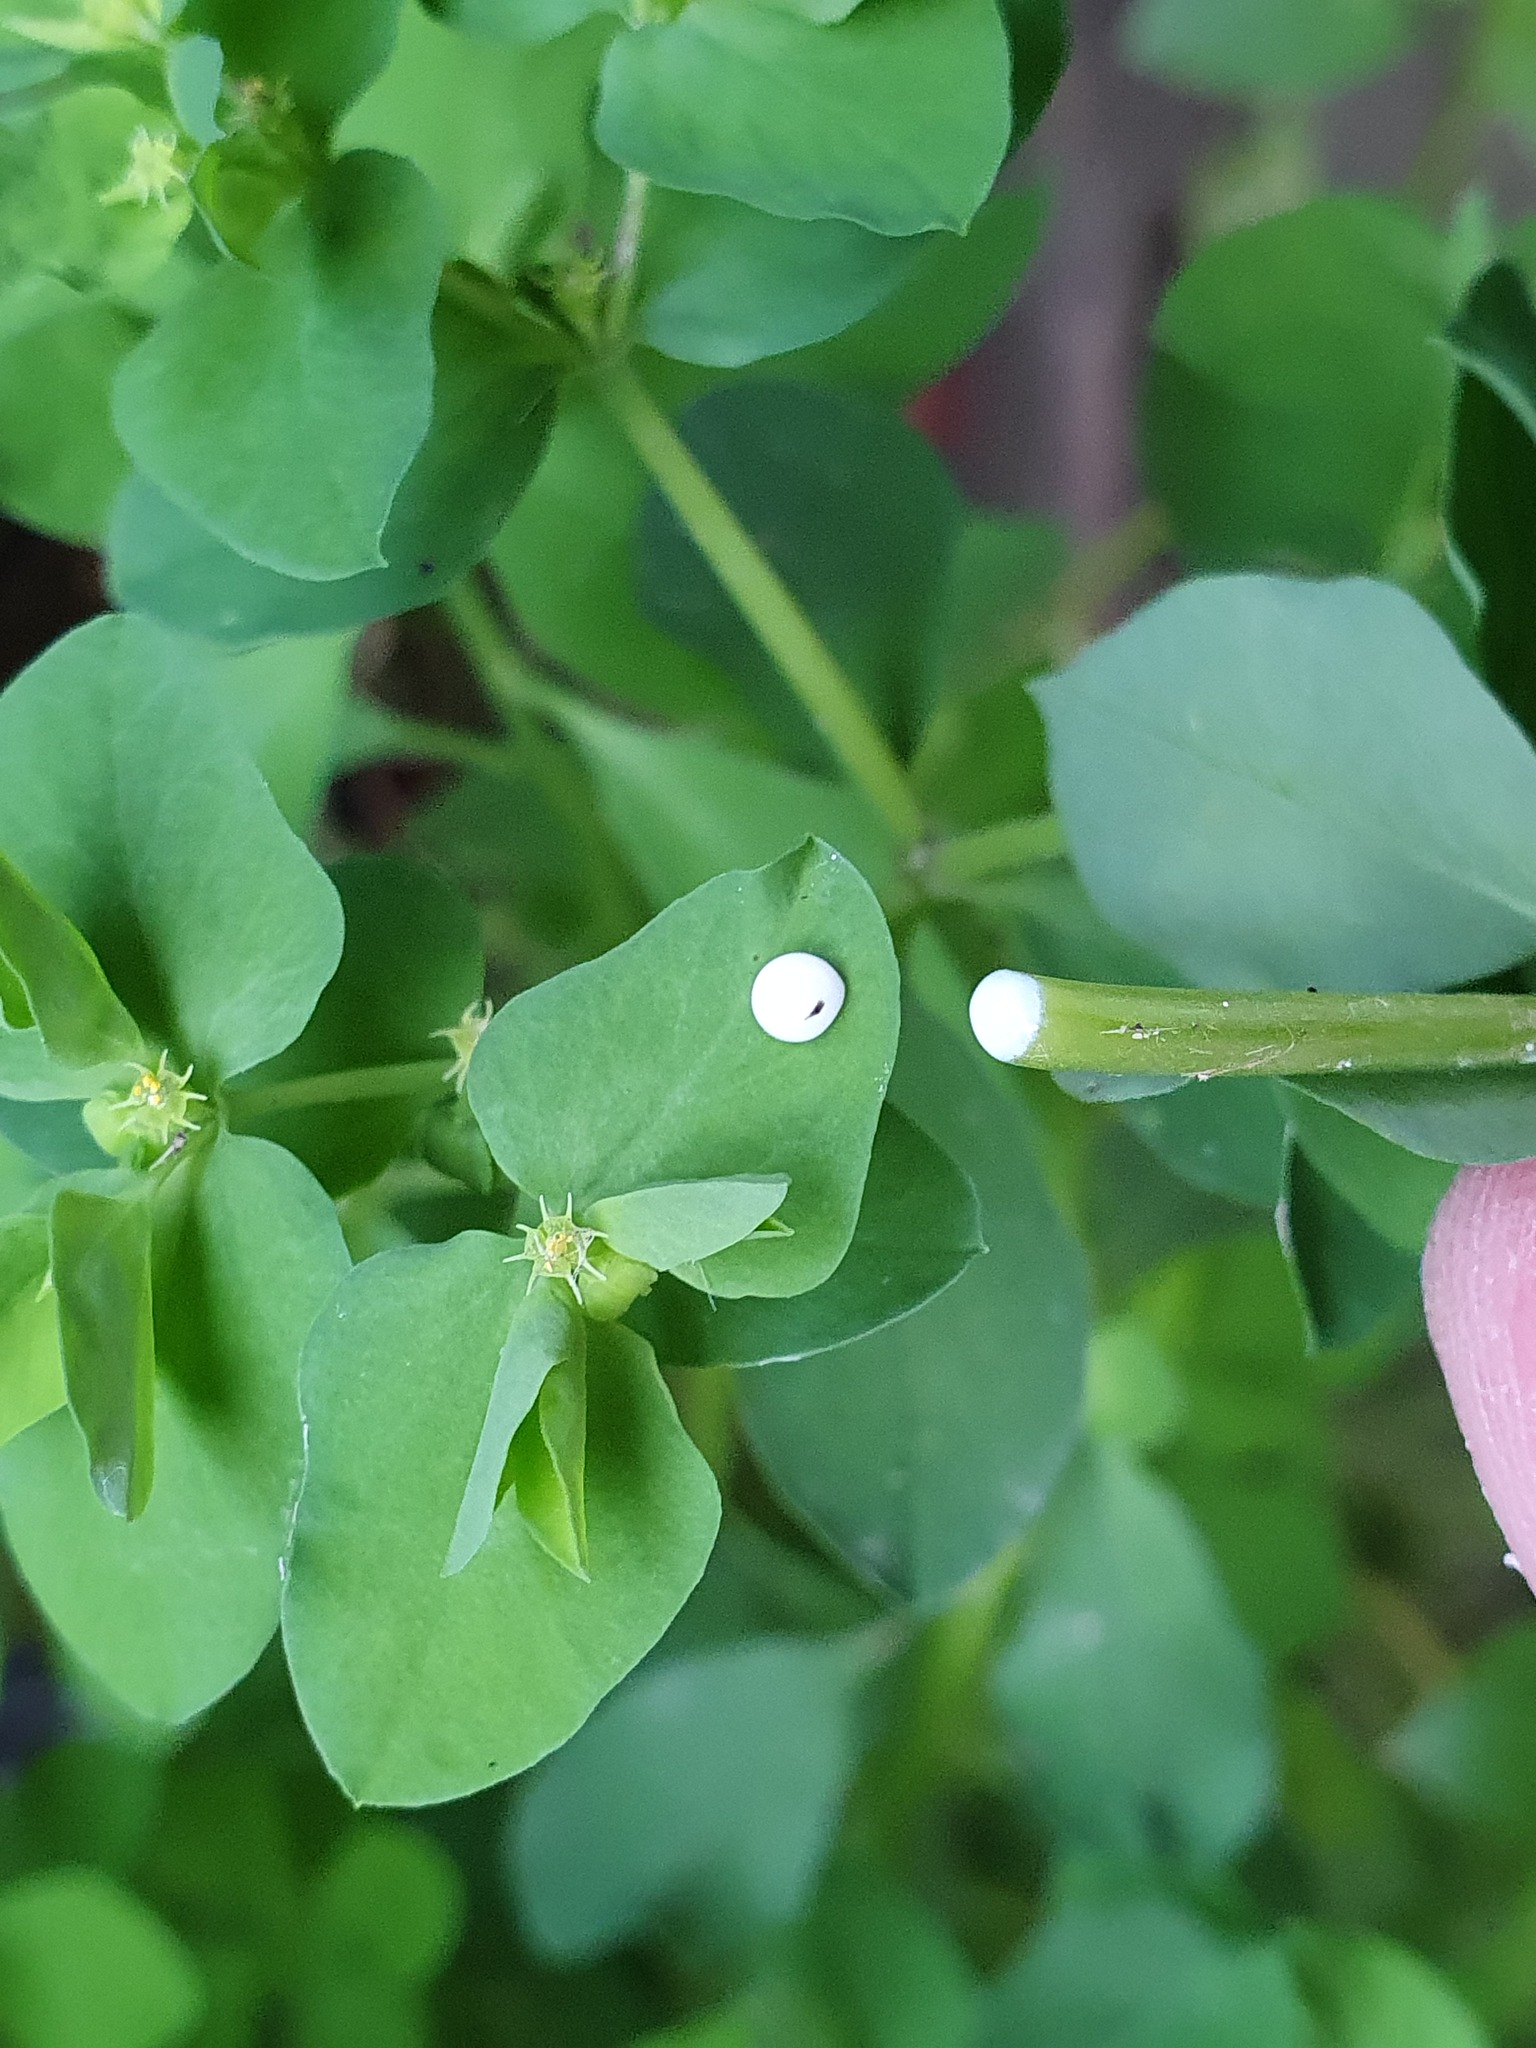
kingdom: Plantae
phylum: Tracheophyta
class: Magnoliopsida
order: Malpighiales
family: Euphorbiaceae
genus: Euphorbia
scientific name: Euphorbia peplus
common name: Petty spurge
